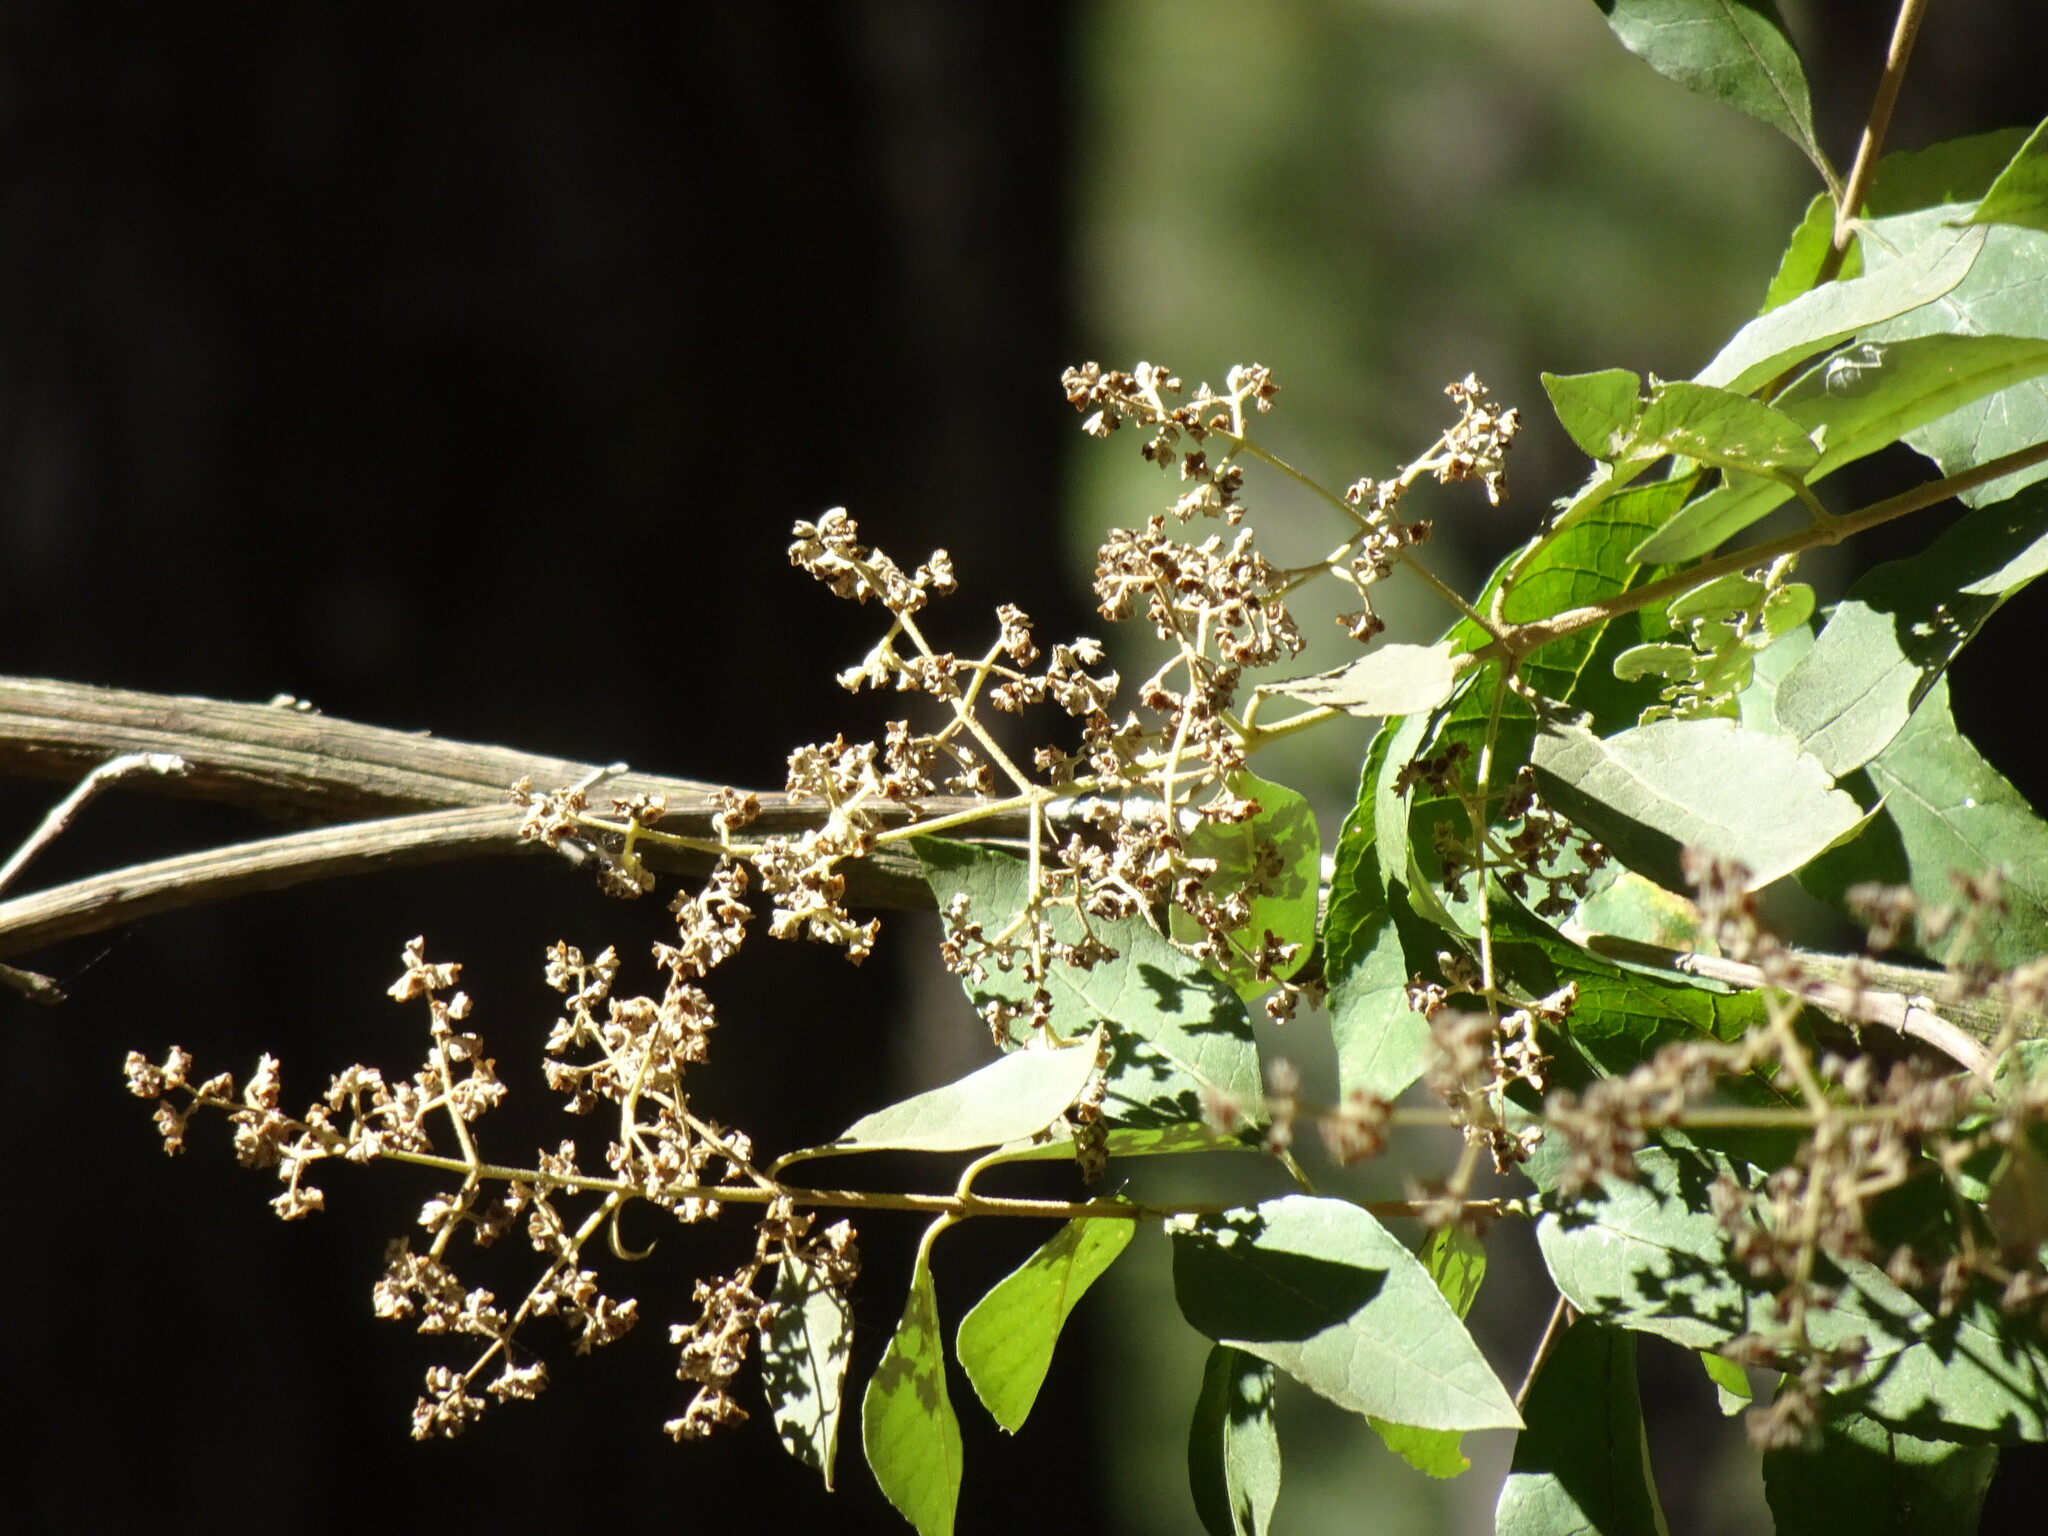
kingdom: Plantae
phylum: Tracheophyta
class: Magnoliopsida
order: Lamiales
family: Scrophulariaceae
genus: Buddleja
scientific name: Buddleja cordata
